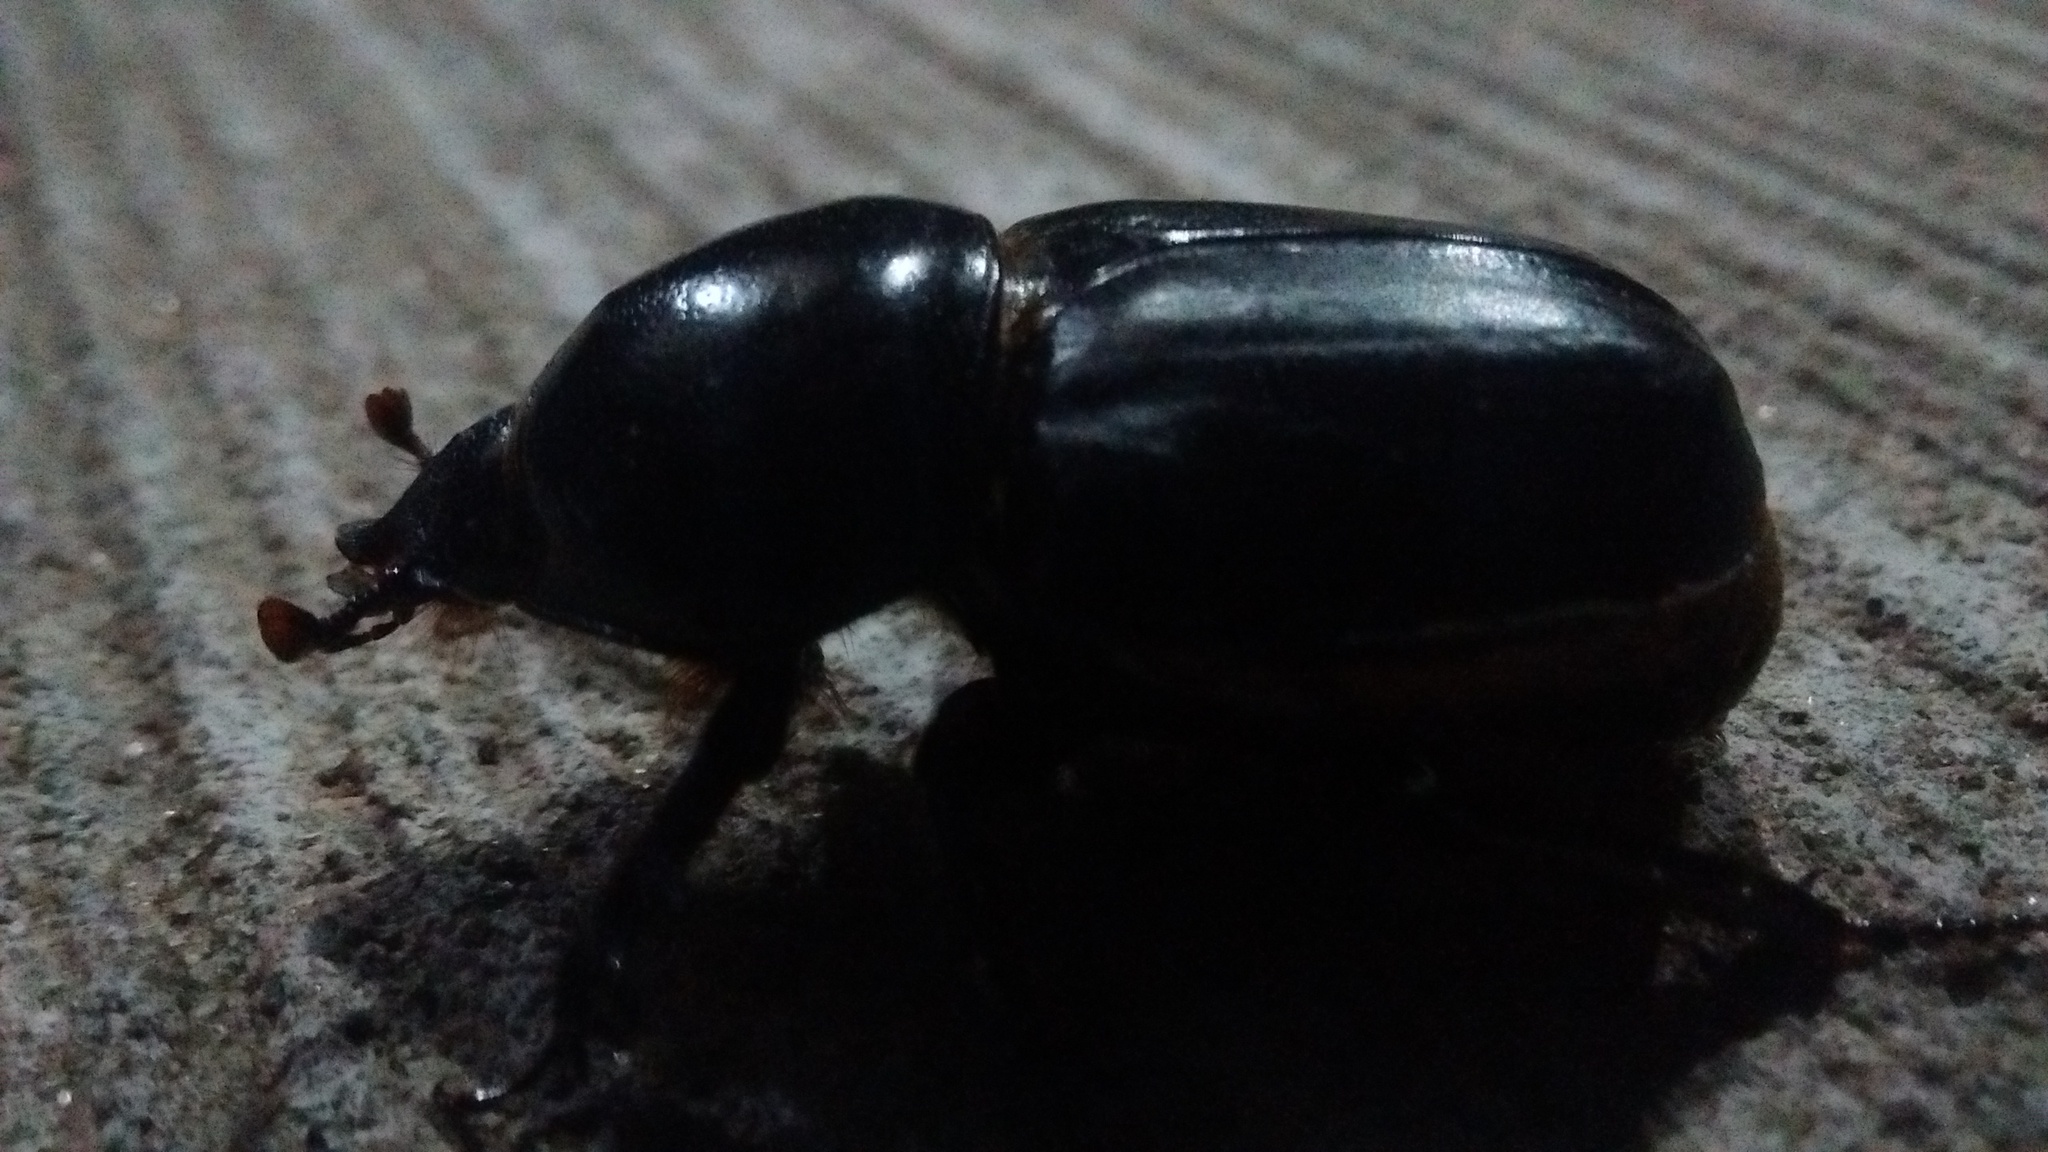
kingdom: Animalia
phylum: Arthropoda
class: Insecta
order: Coleoptera
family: Scarabaeidae
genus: Diloboderus
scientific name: Diloboderus abderus
